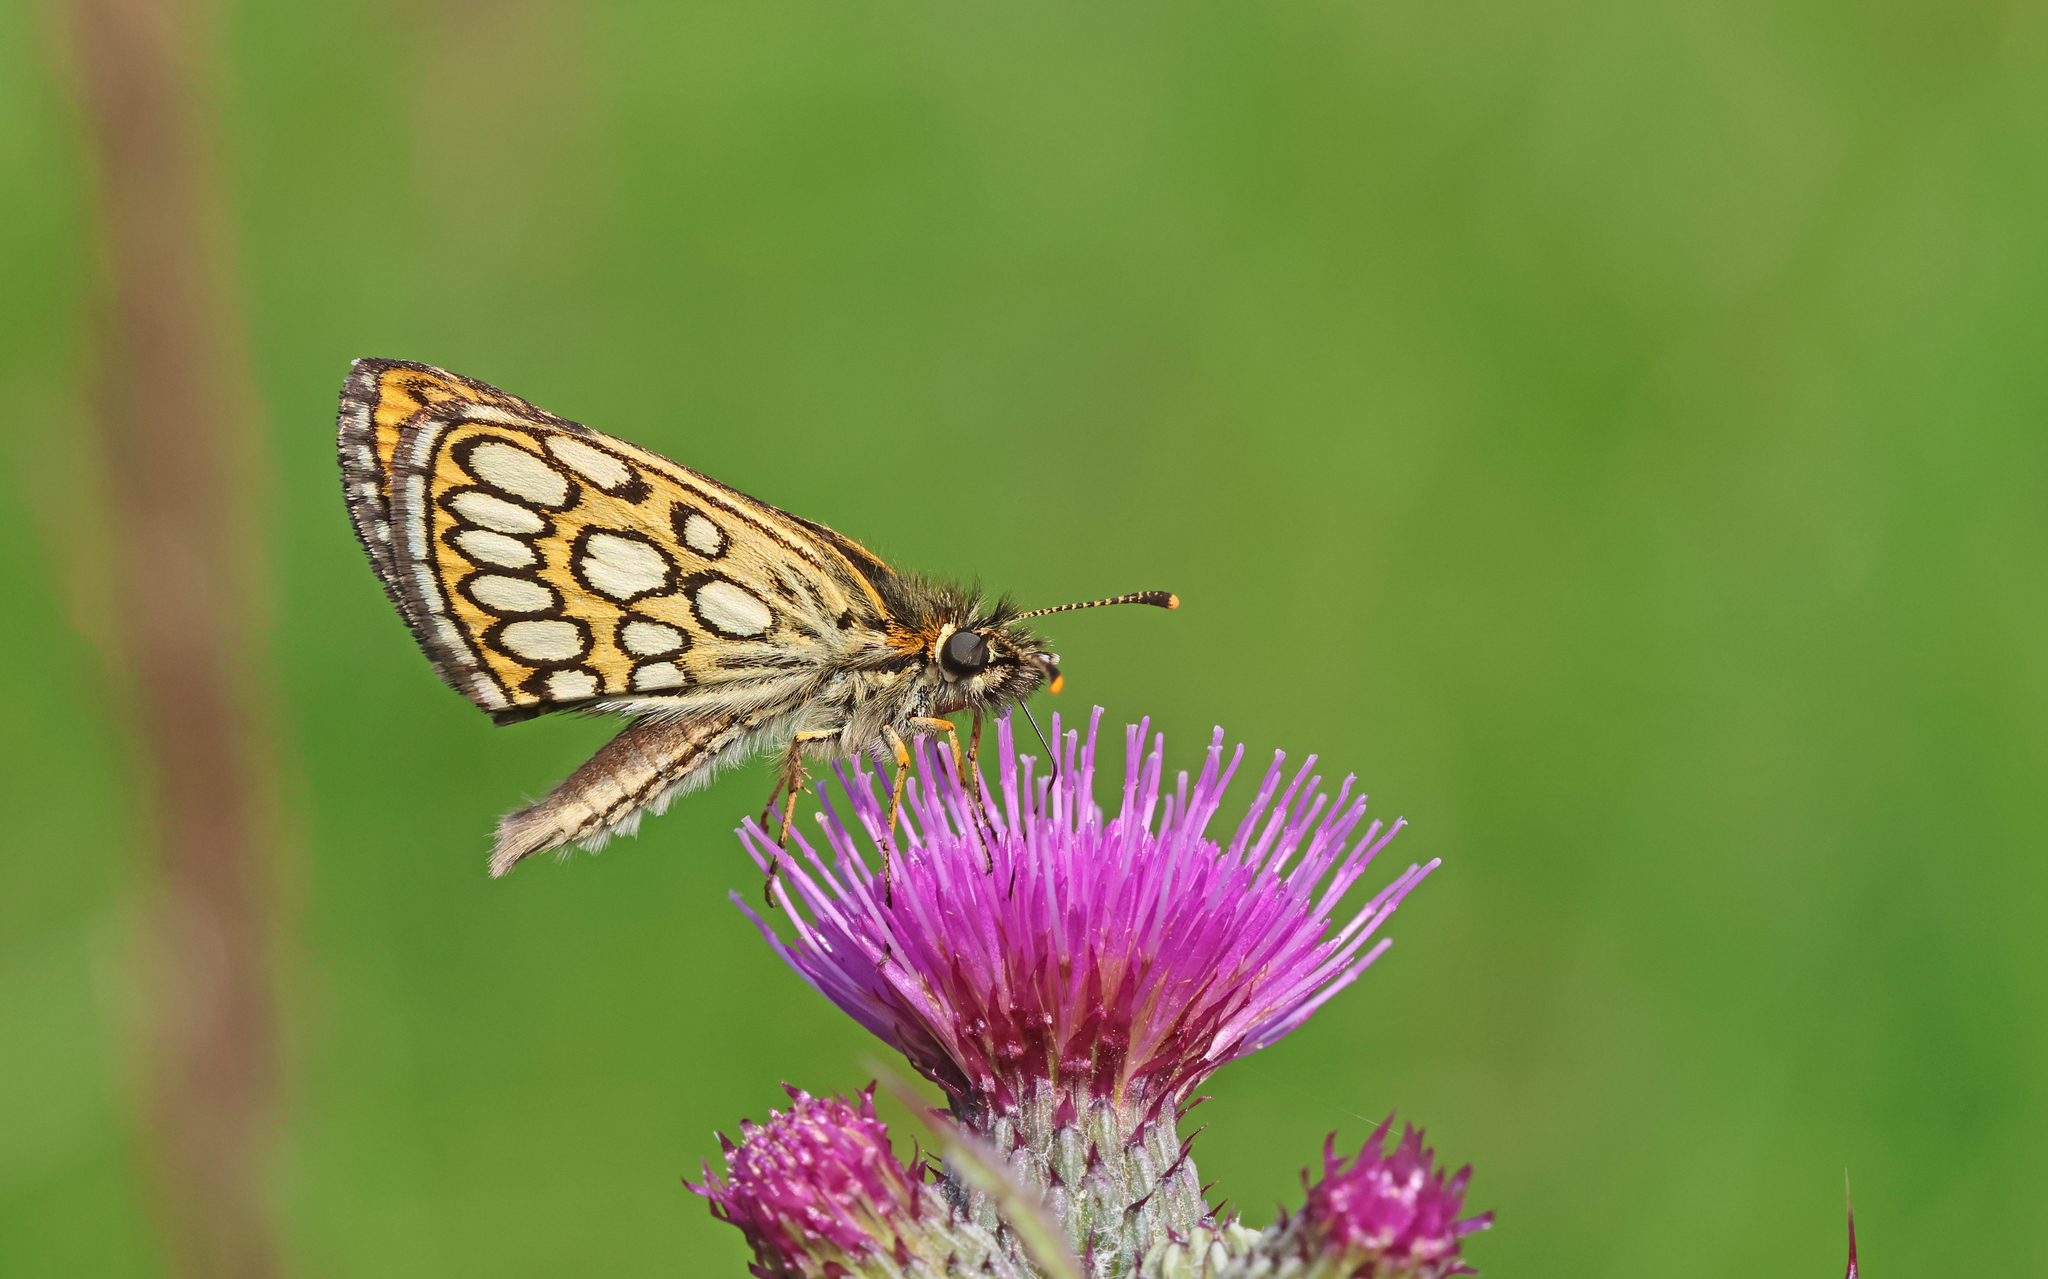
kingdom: Animalia
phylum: Arthropoda
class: Insecta
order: Lepidoptera
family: Hesperiidae
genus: Heteropterus
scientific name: Heteropterus morpheus
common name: Large chequered skipper
